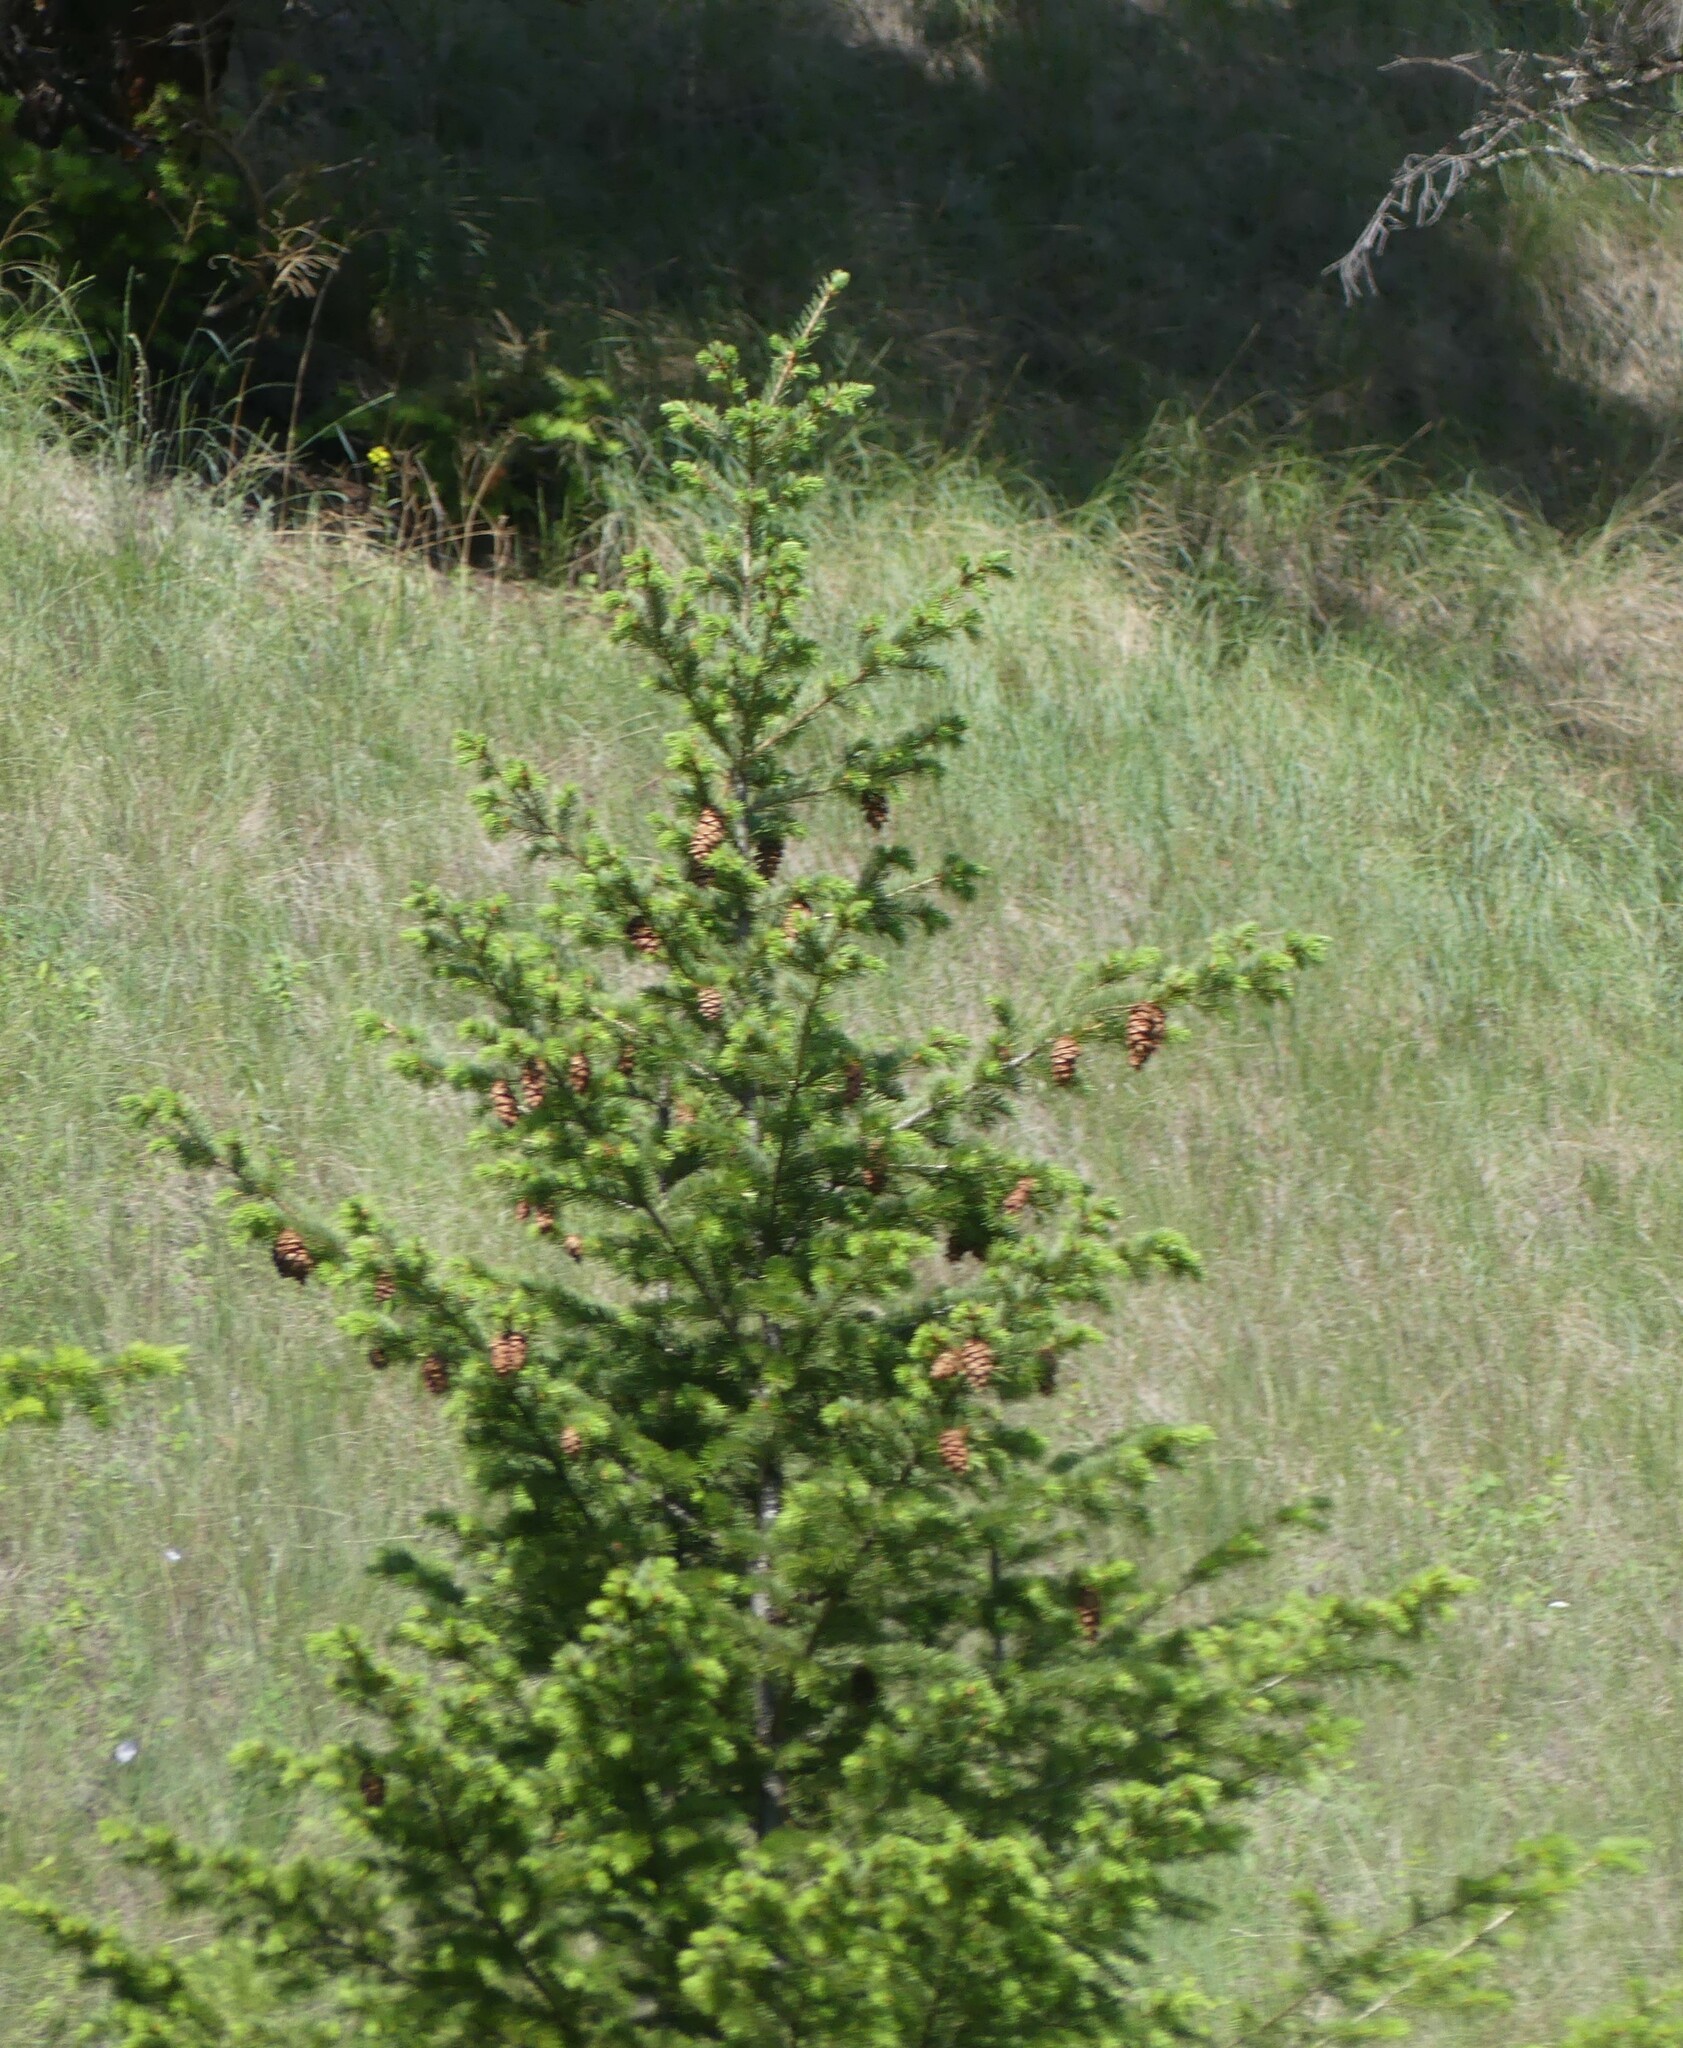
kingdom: Plantae
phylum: Tracheophyta
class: Pinopsida
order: Pinales
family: Pinaceae
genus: Pseudotsuga
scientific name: Pseudotsuga menziesii
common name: Douglas fir
